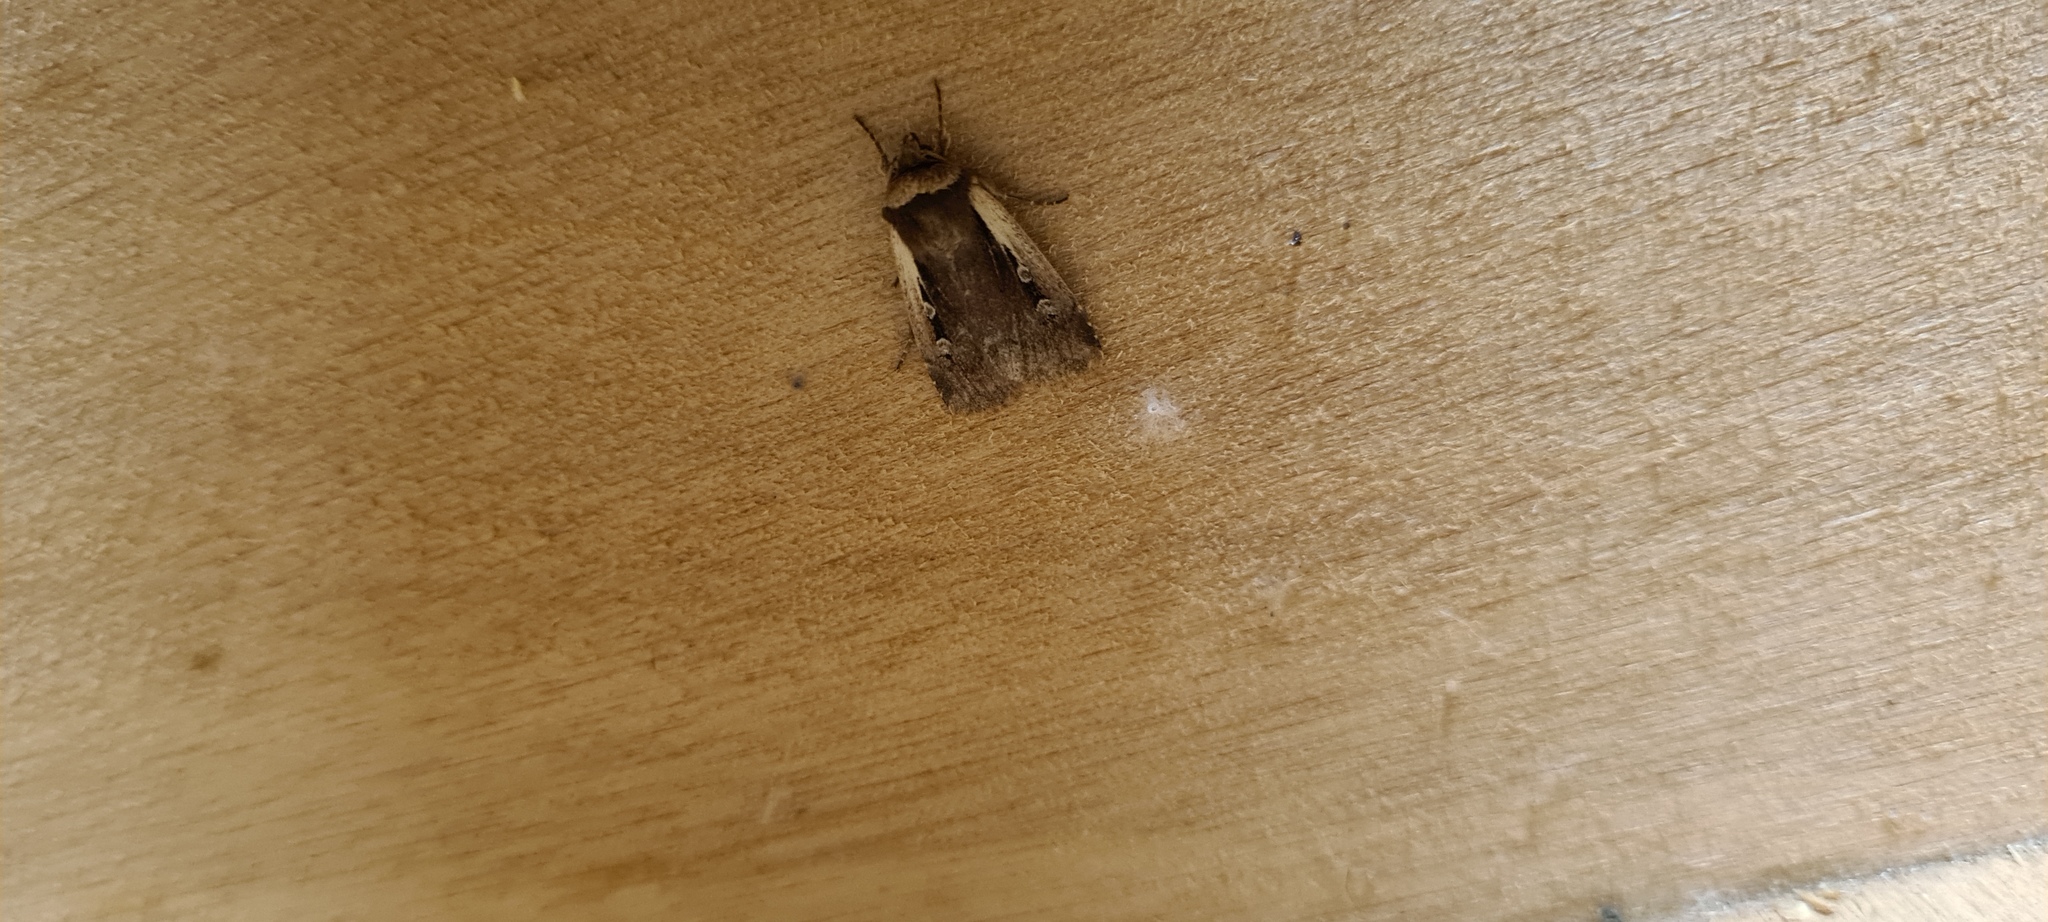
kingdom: Animalia
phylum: Arthropoda
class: Insecta
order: Lepidoptera
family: Noctuidae
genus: Ochropleura
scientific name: Ochropleura plecta
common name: Flame shoulder
